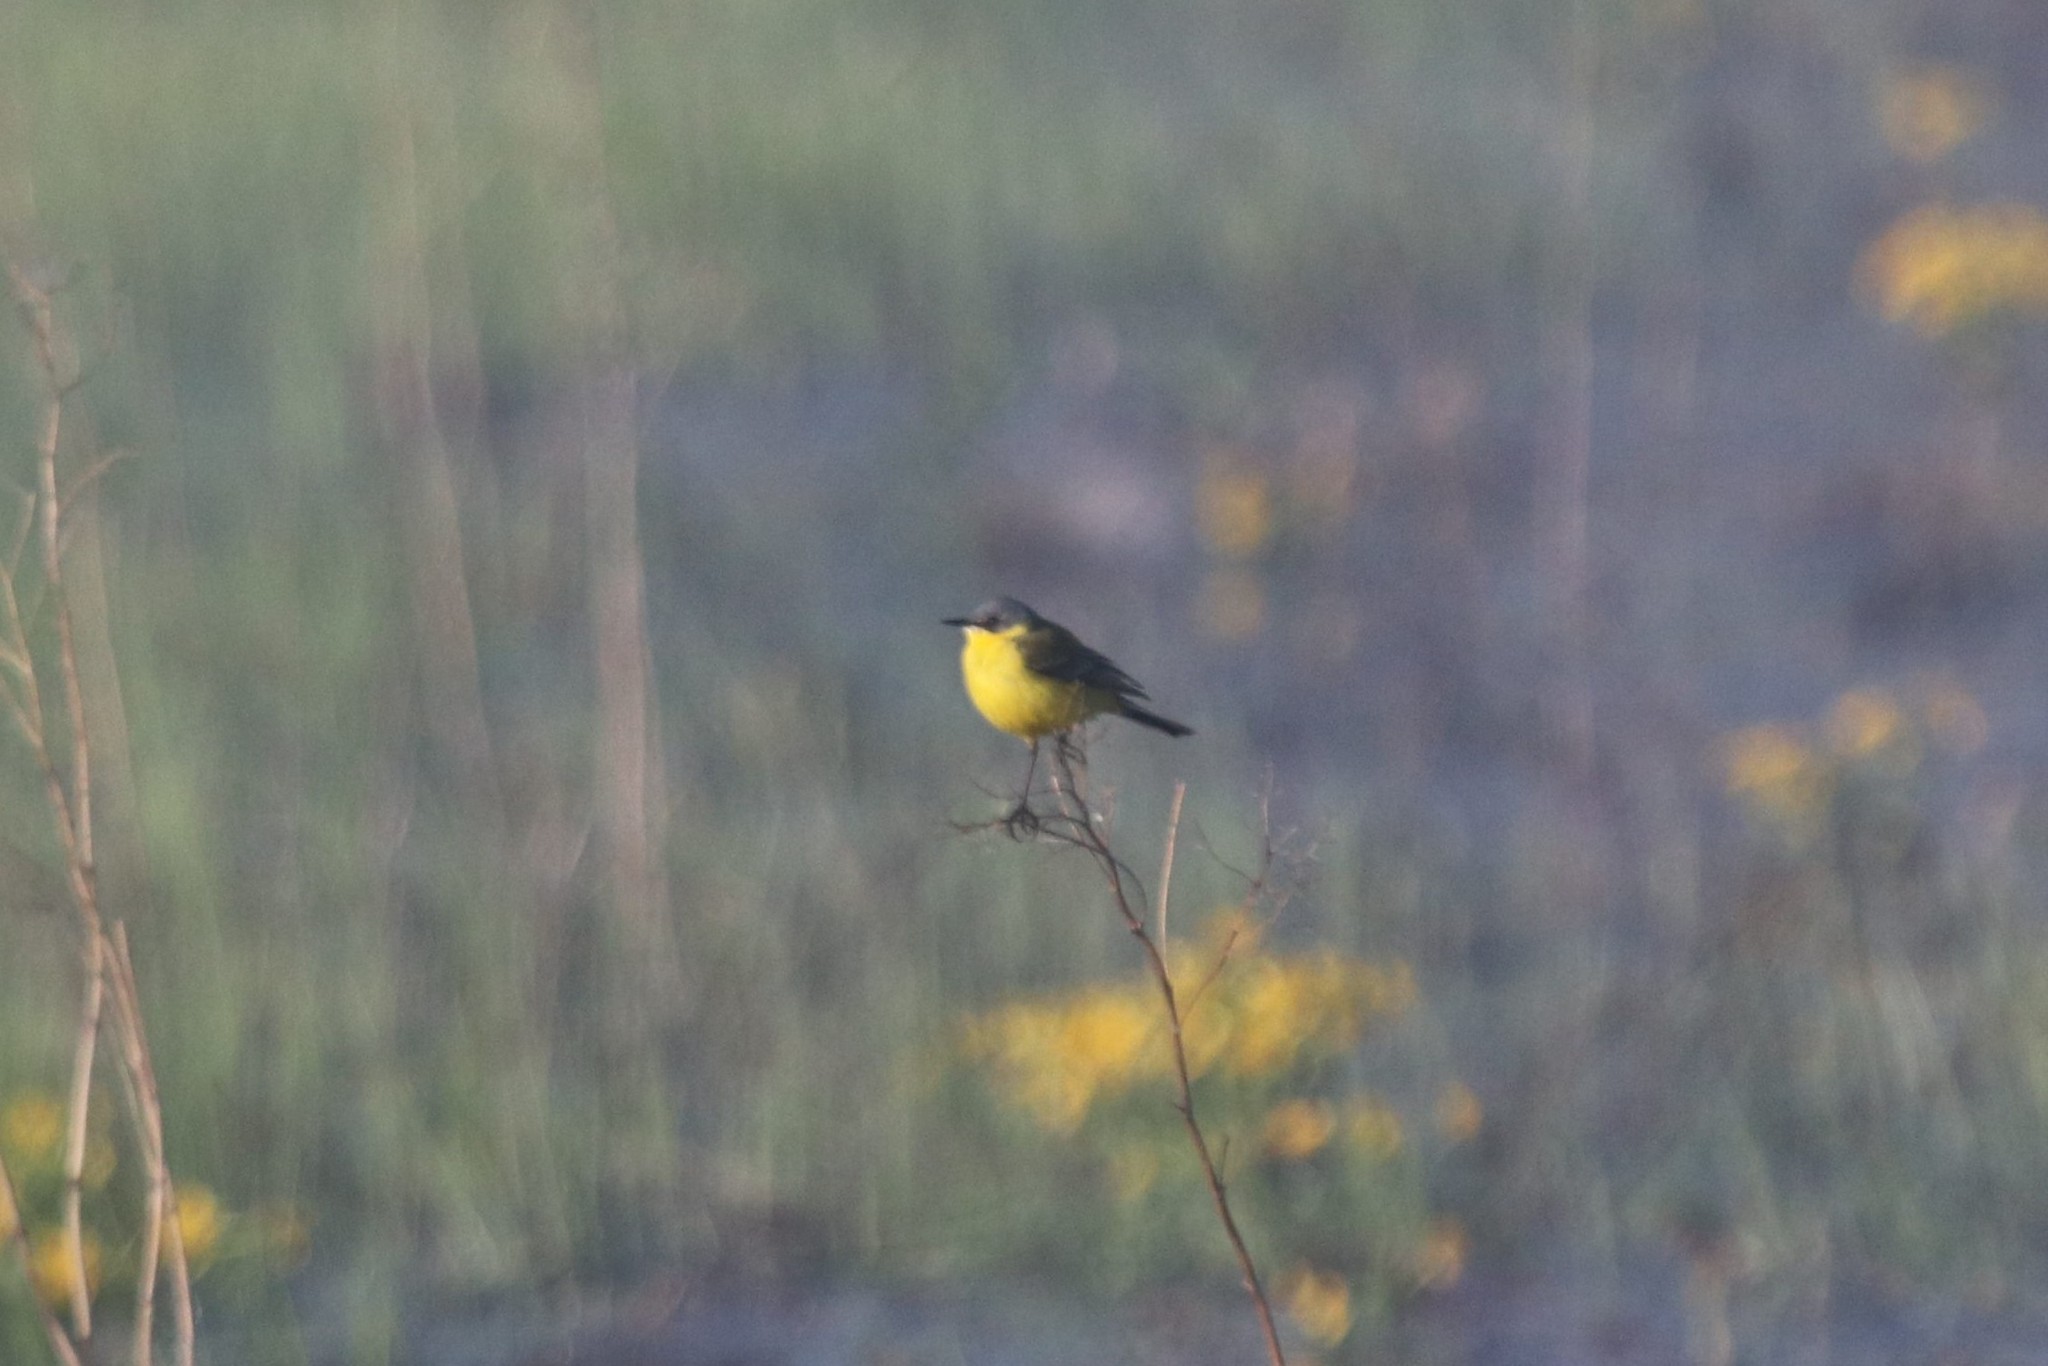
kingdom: Animalia
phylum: Chordata
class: Aves
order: Passeriformes
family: Motacillidae
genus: Motacilla
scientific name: Motacilla flava
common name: Western yellow wagtail
